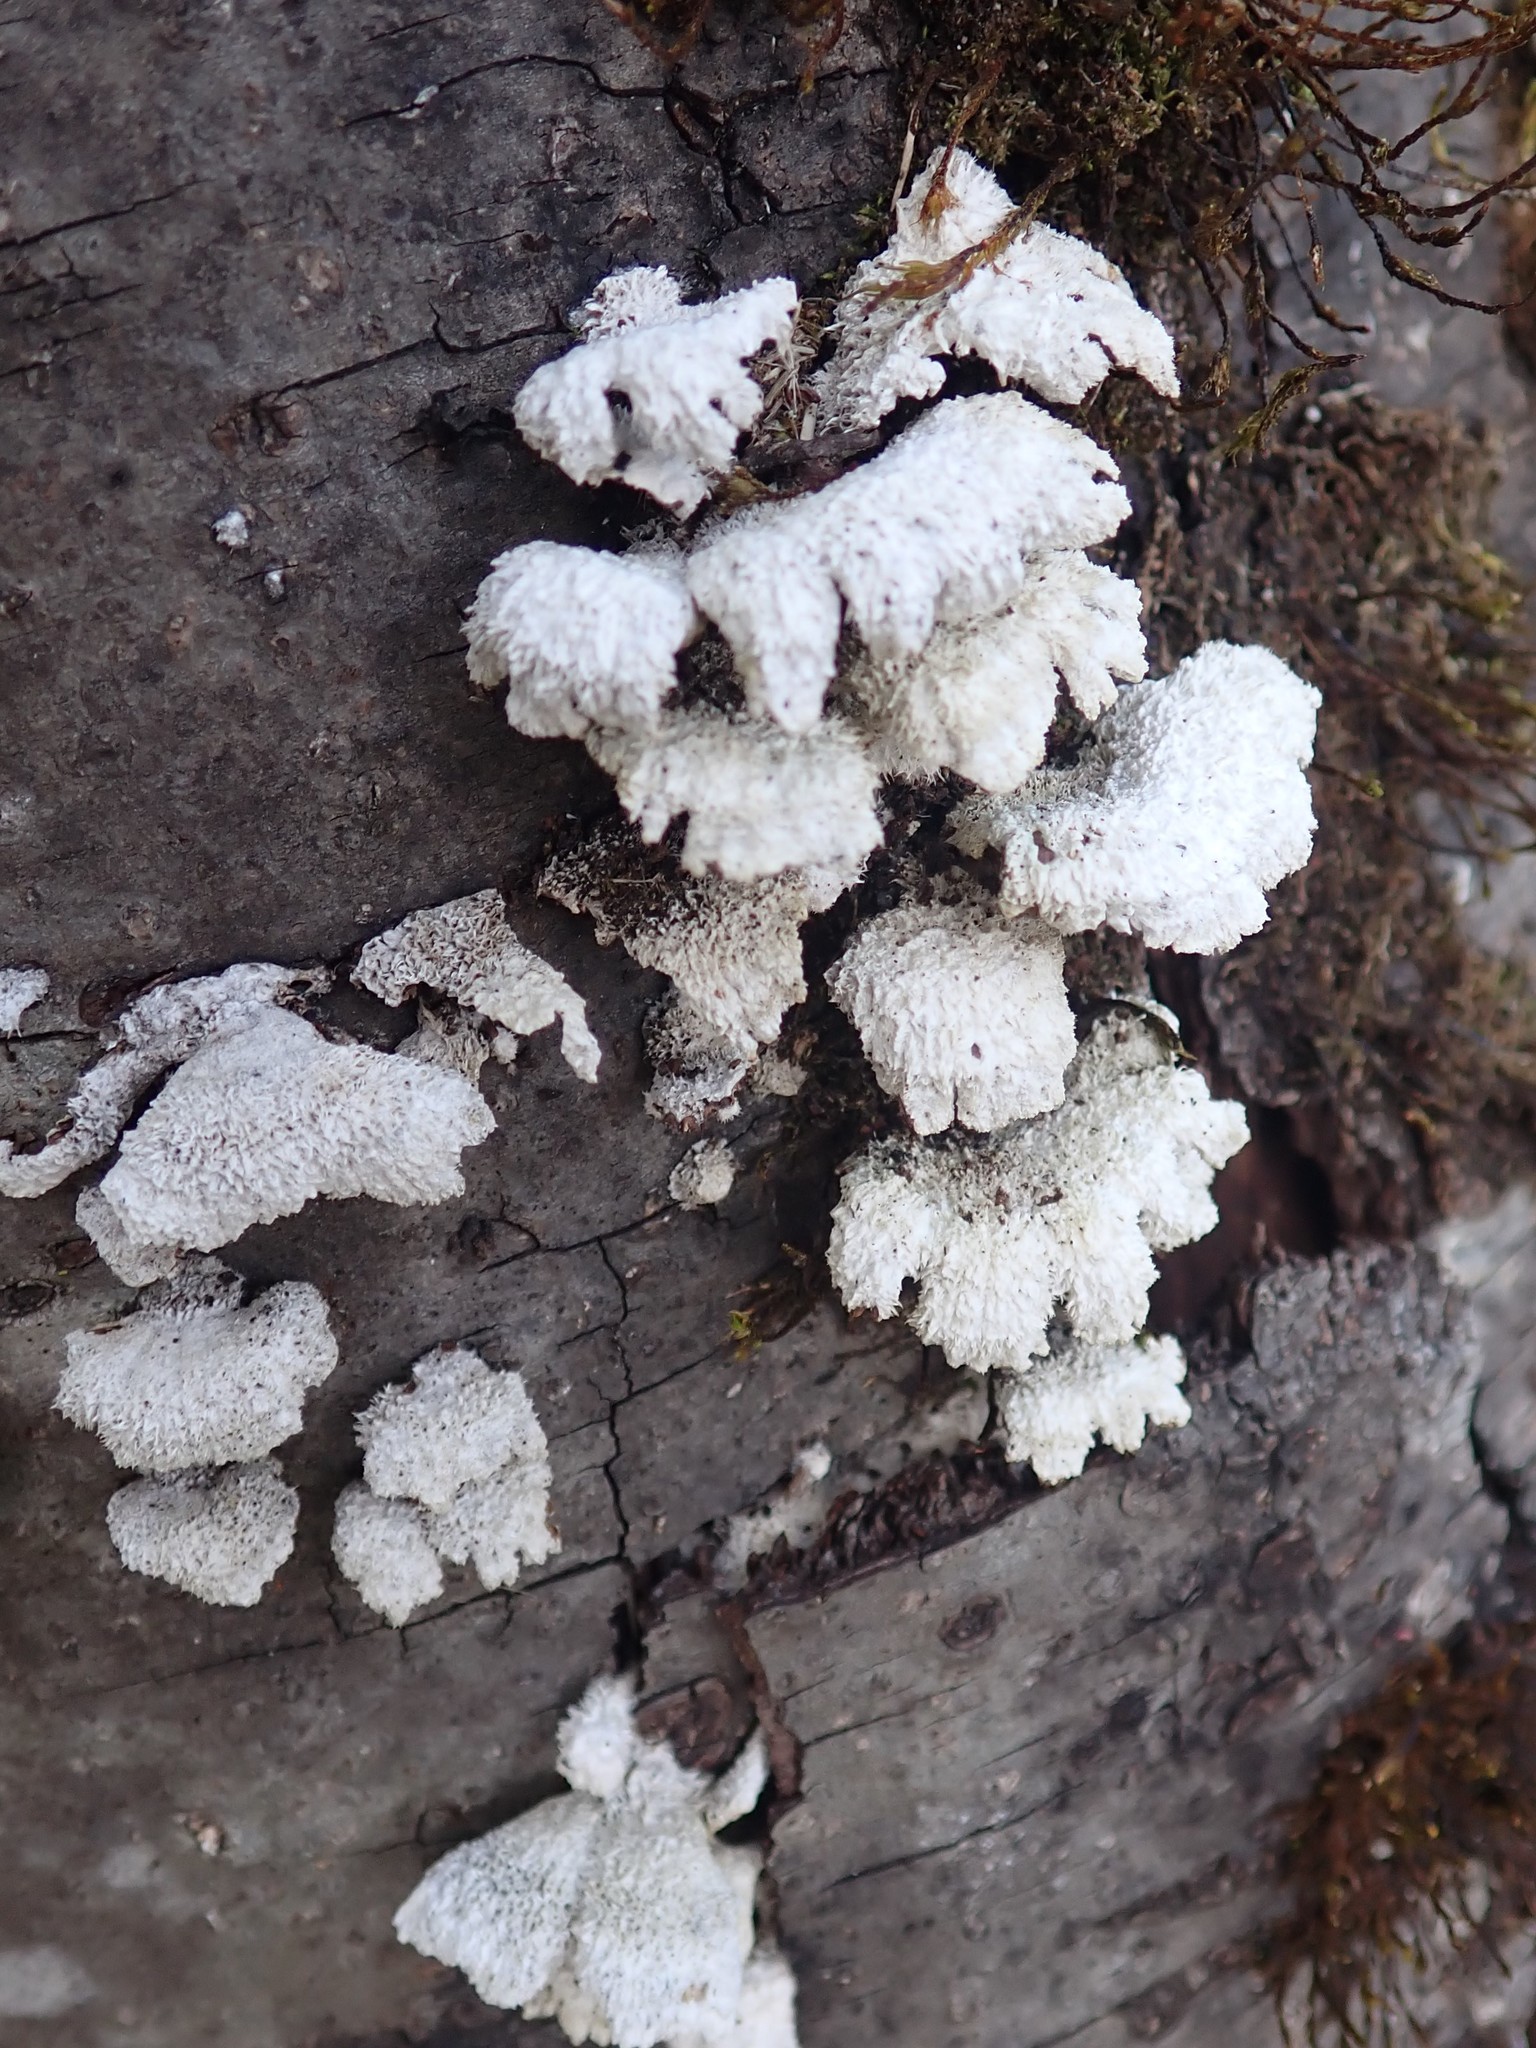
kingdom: Fungi
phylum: Basidiomycota
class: Agaricomycetes
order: Agaricales
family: Schizophyllaceae
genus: Schizophyllum
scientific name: Schizophyllum commune
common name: Common porecrust
